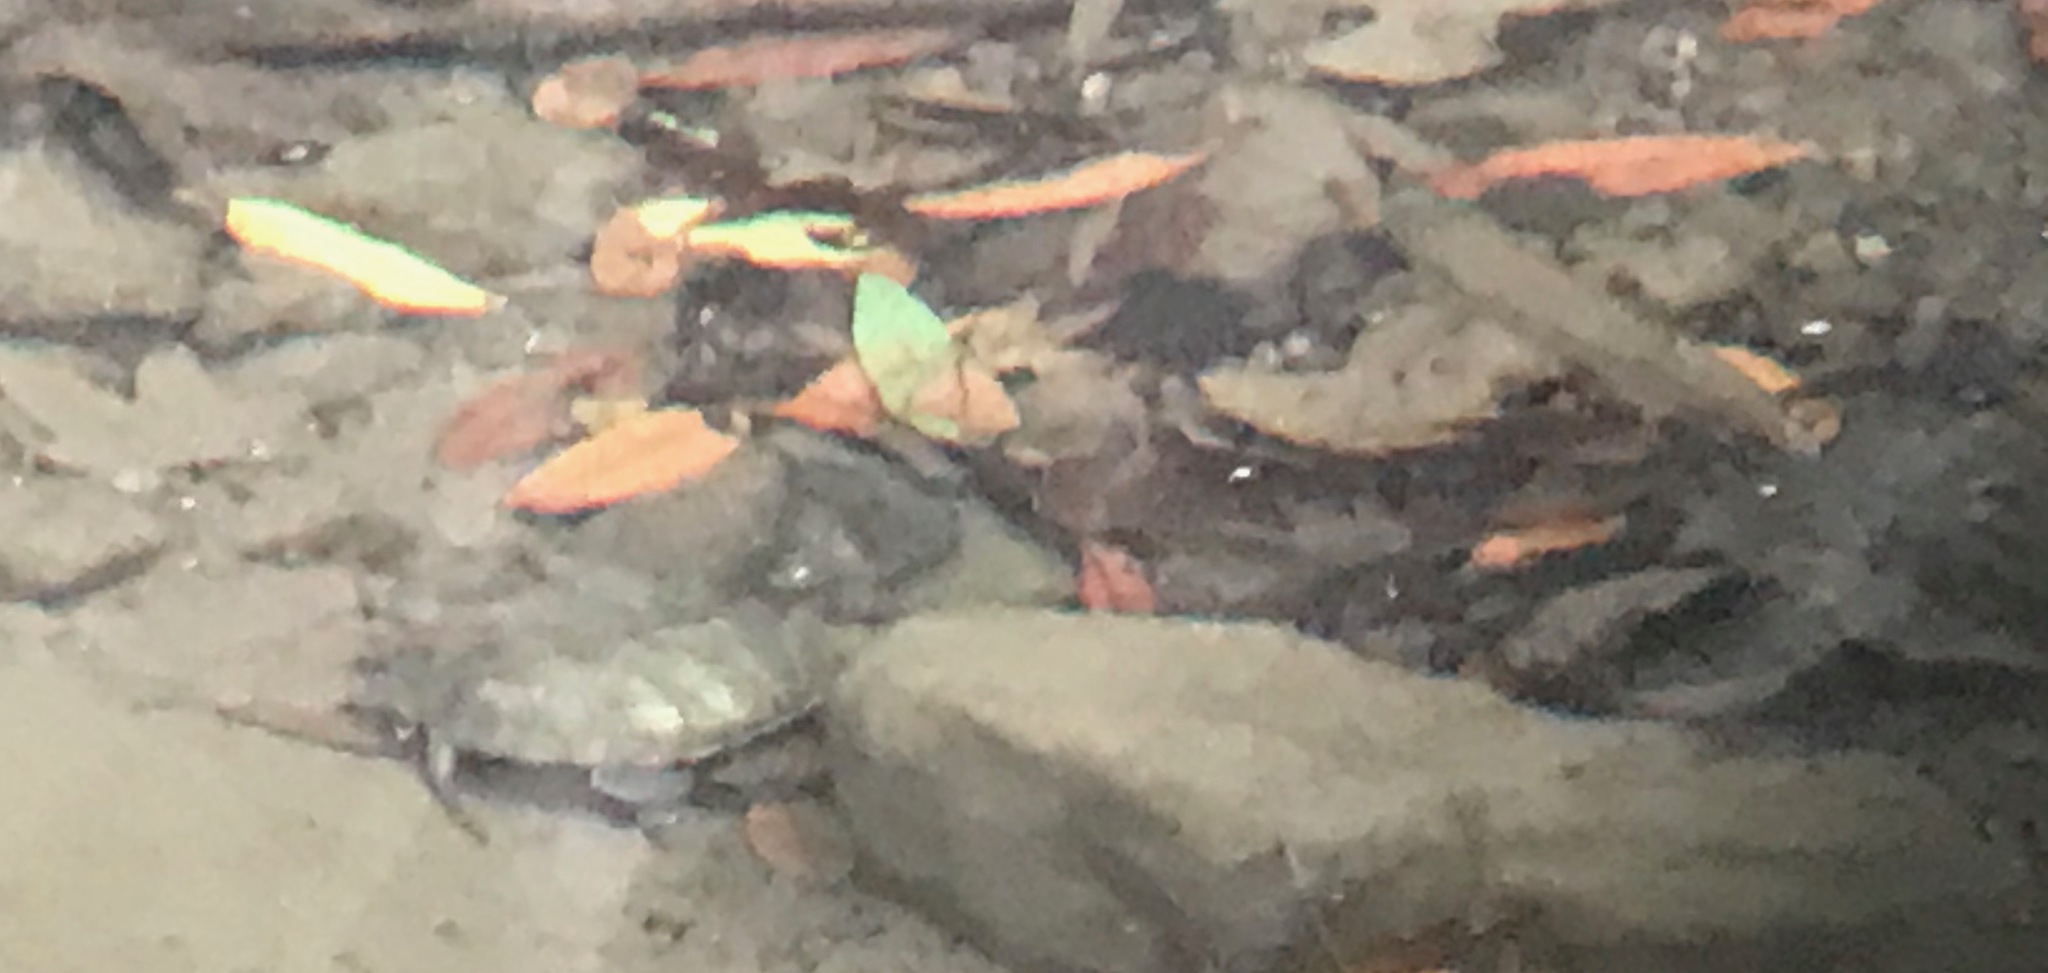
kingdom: Animalia
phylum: Chordata
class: Testudines
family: Emydidae
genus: Actinemys
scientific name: Actinemys marmorata
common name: Western pond turtle
